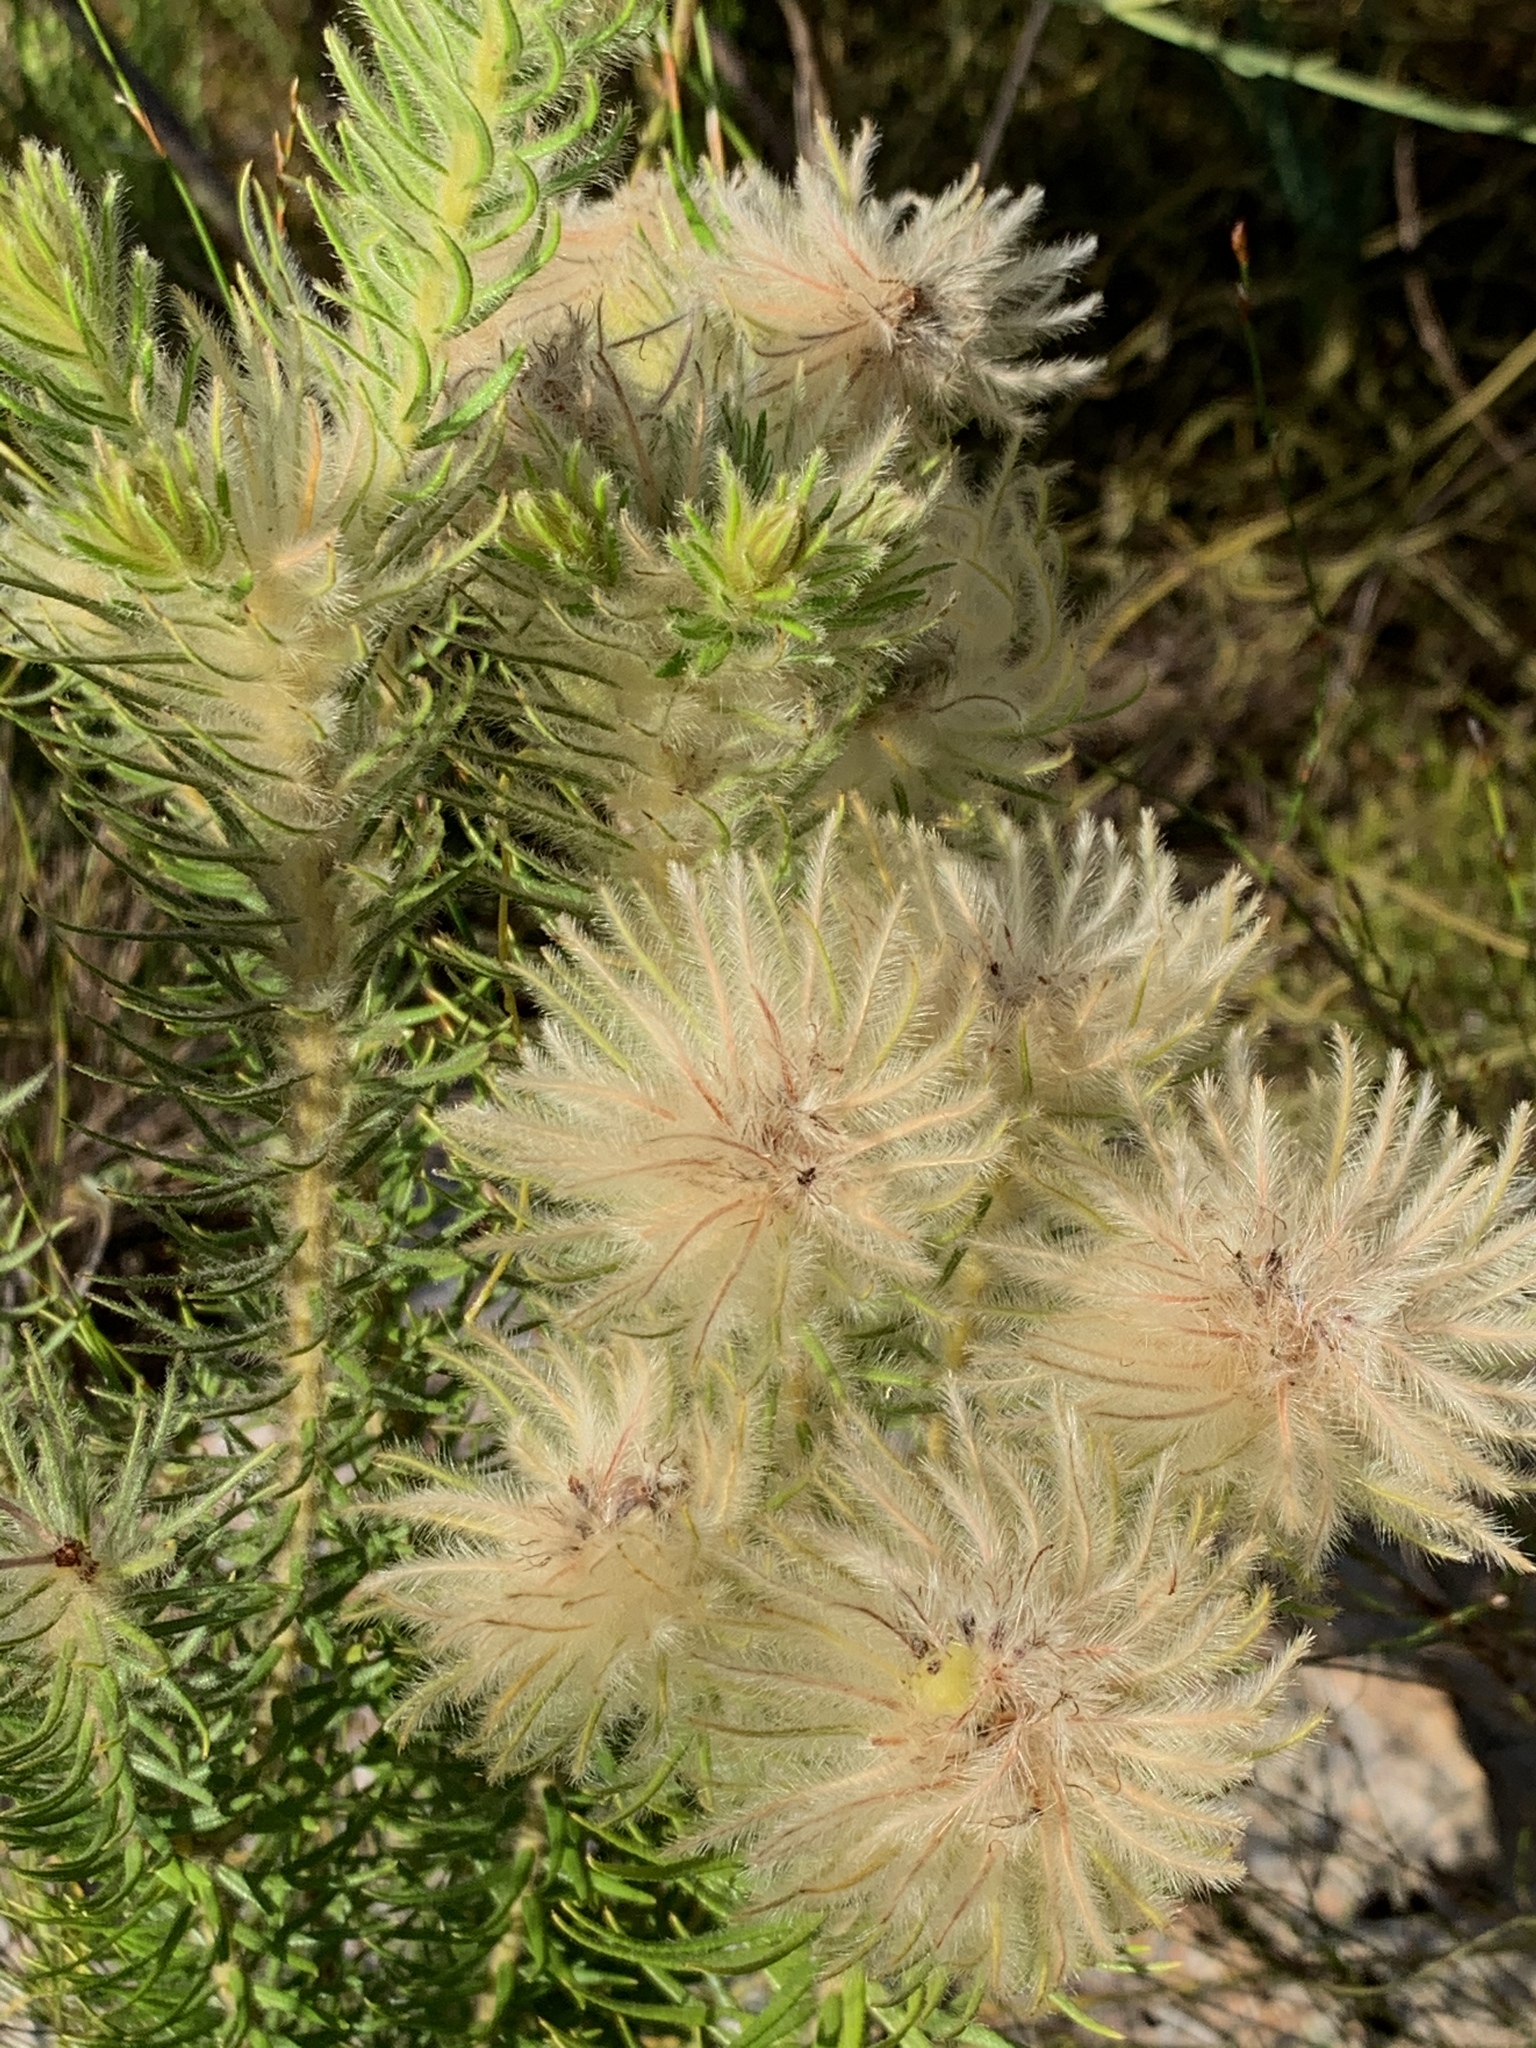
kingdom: Plantae
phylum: Tracheophyta
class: Magnoliopsida
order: Rosales
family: Rhamnaceae
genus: Phylica
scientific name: Phylica pubescens
